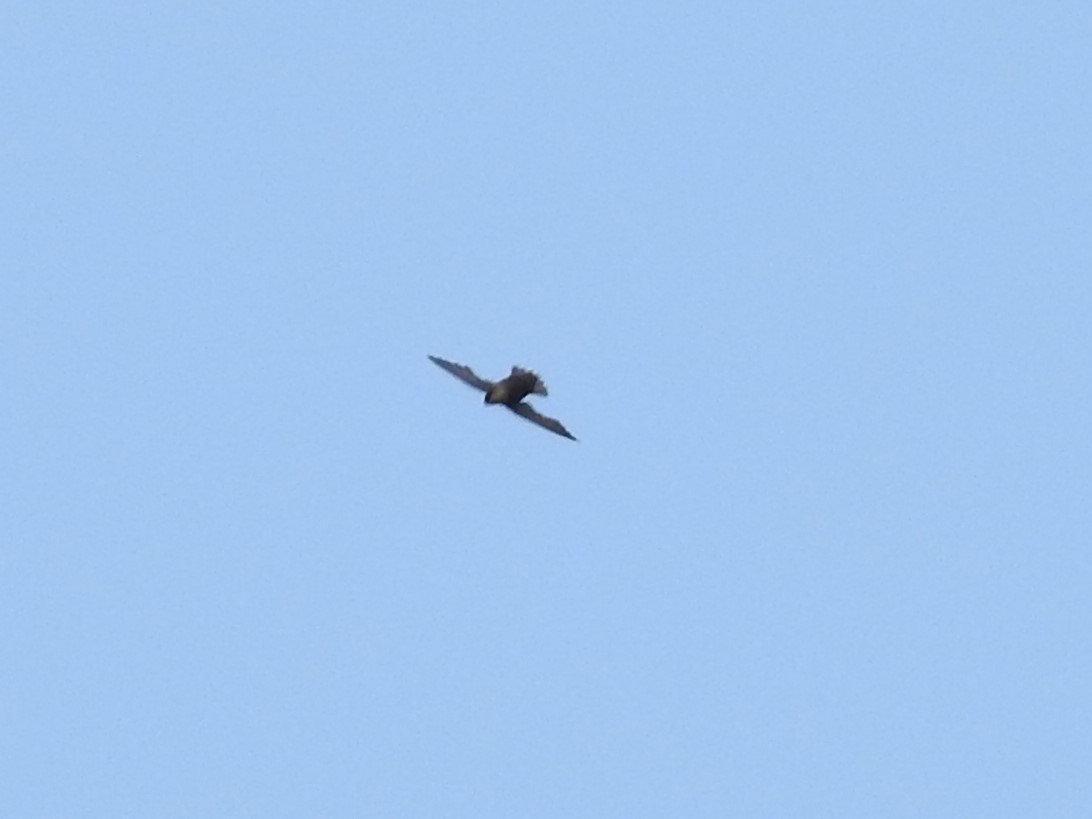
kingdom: Animalia
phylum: Chordata
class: Aves
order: Apodiformes
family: Apodidae
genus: Chaetura
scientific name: Chaetura pelagica
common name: Chimney swift
